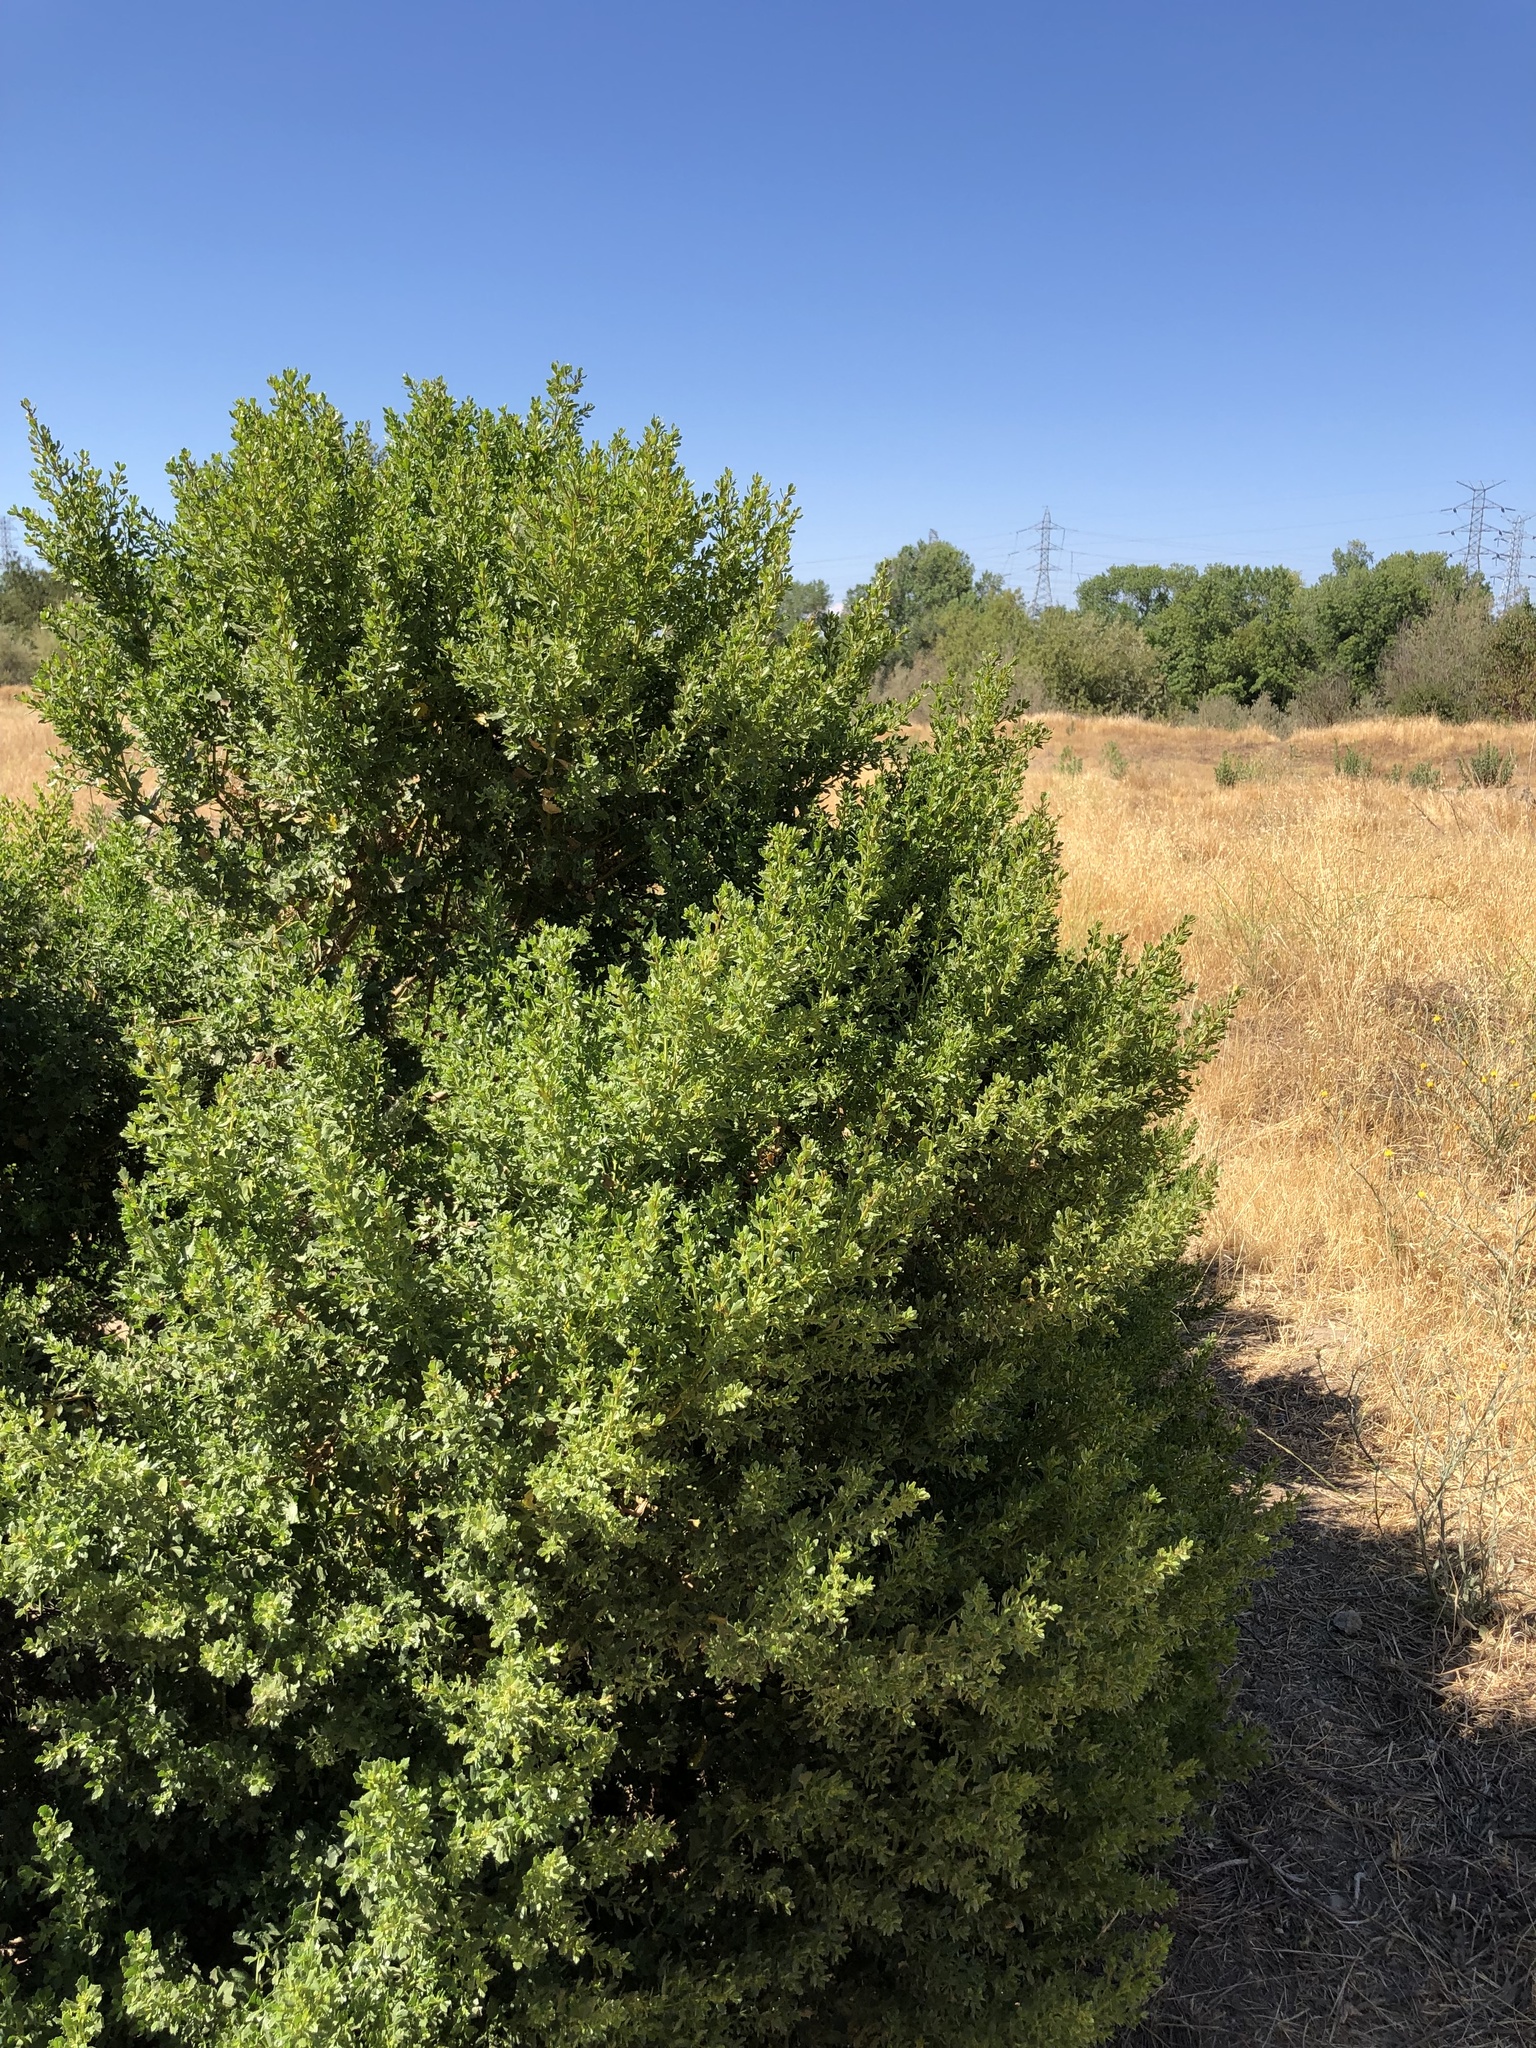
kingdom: Plantae
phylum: Tracheophyta
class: Magnoliopsida
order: Asterales
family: Asteraceae
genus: Baccharis
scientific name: Baccharis pilularis
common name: Coyotebrush
